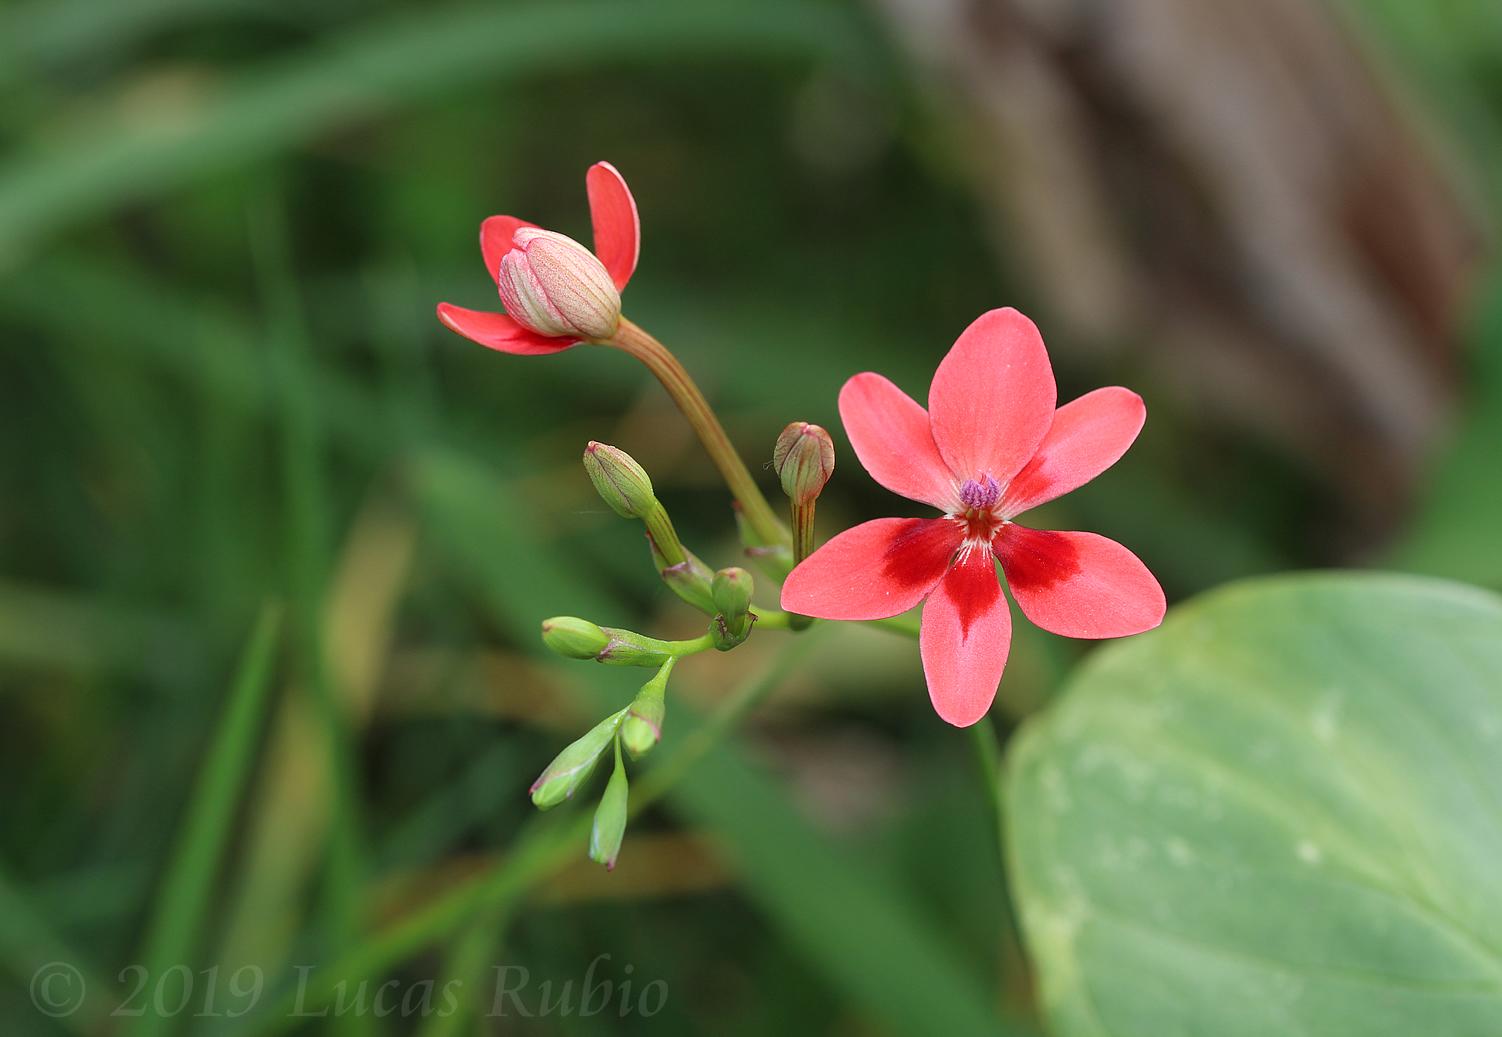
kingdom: Plantae
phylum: Tracheophyta
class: Liliopsida
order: Asparagales
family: Iridaceae
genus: Freesia
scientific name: Freesia laxa
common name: False freesia
